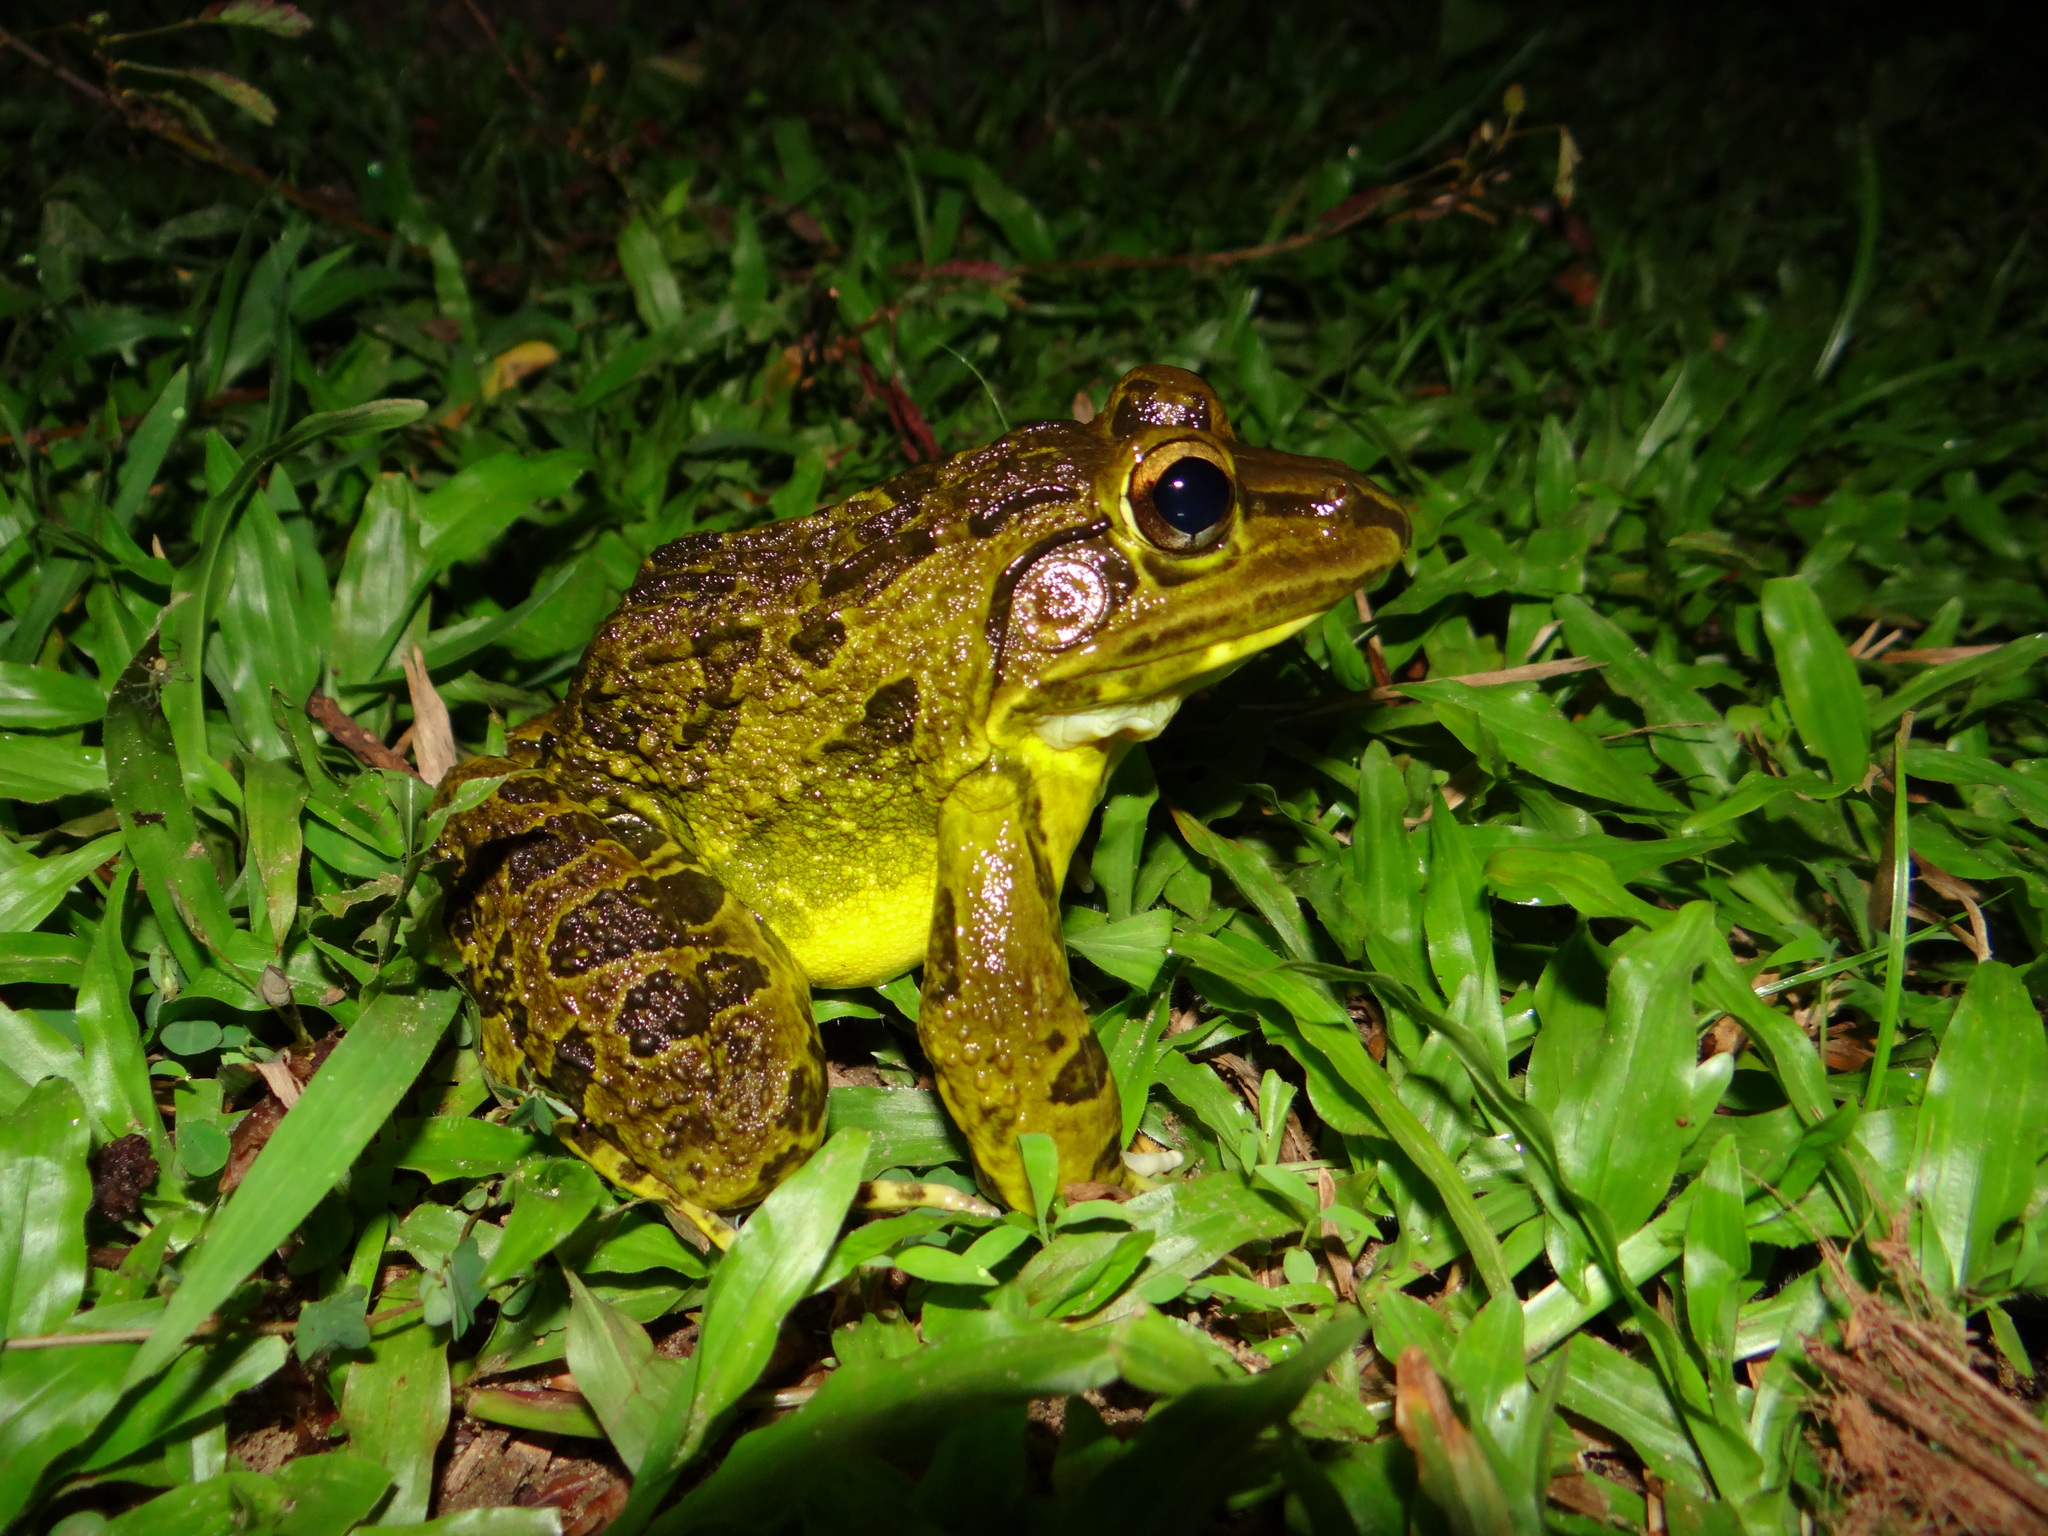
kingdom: Animalia
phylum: Chordata
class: Amphibia
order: Anura
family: Dicroglossidae
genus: Hoplobatrachus
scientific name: Hoplobatrachus tigerinus
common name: Indian bullfrog
